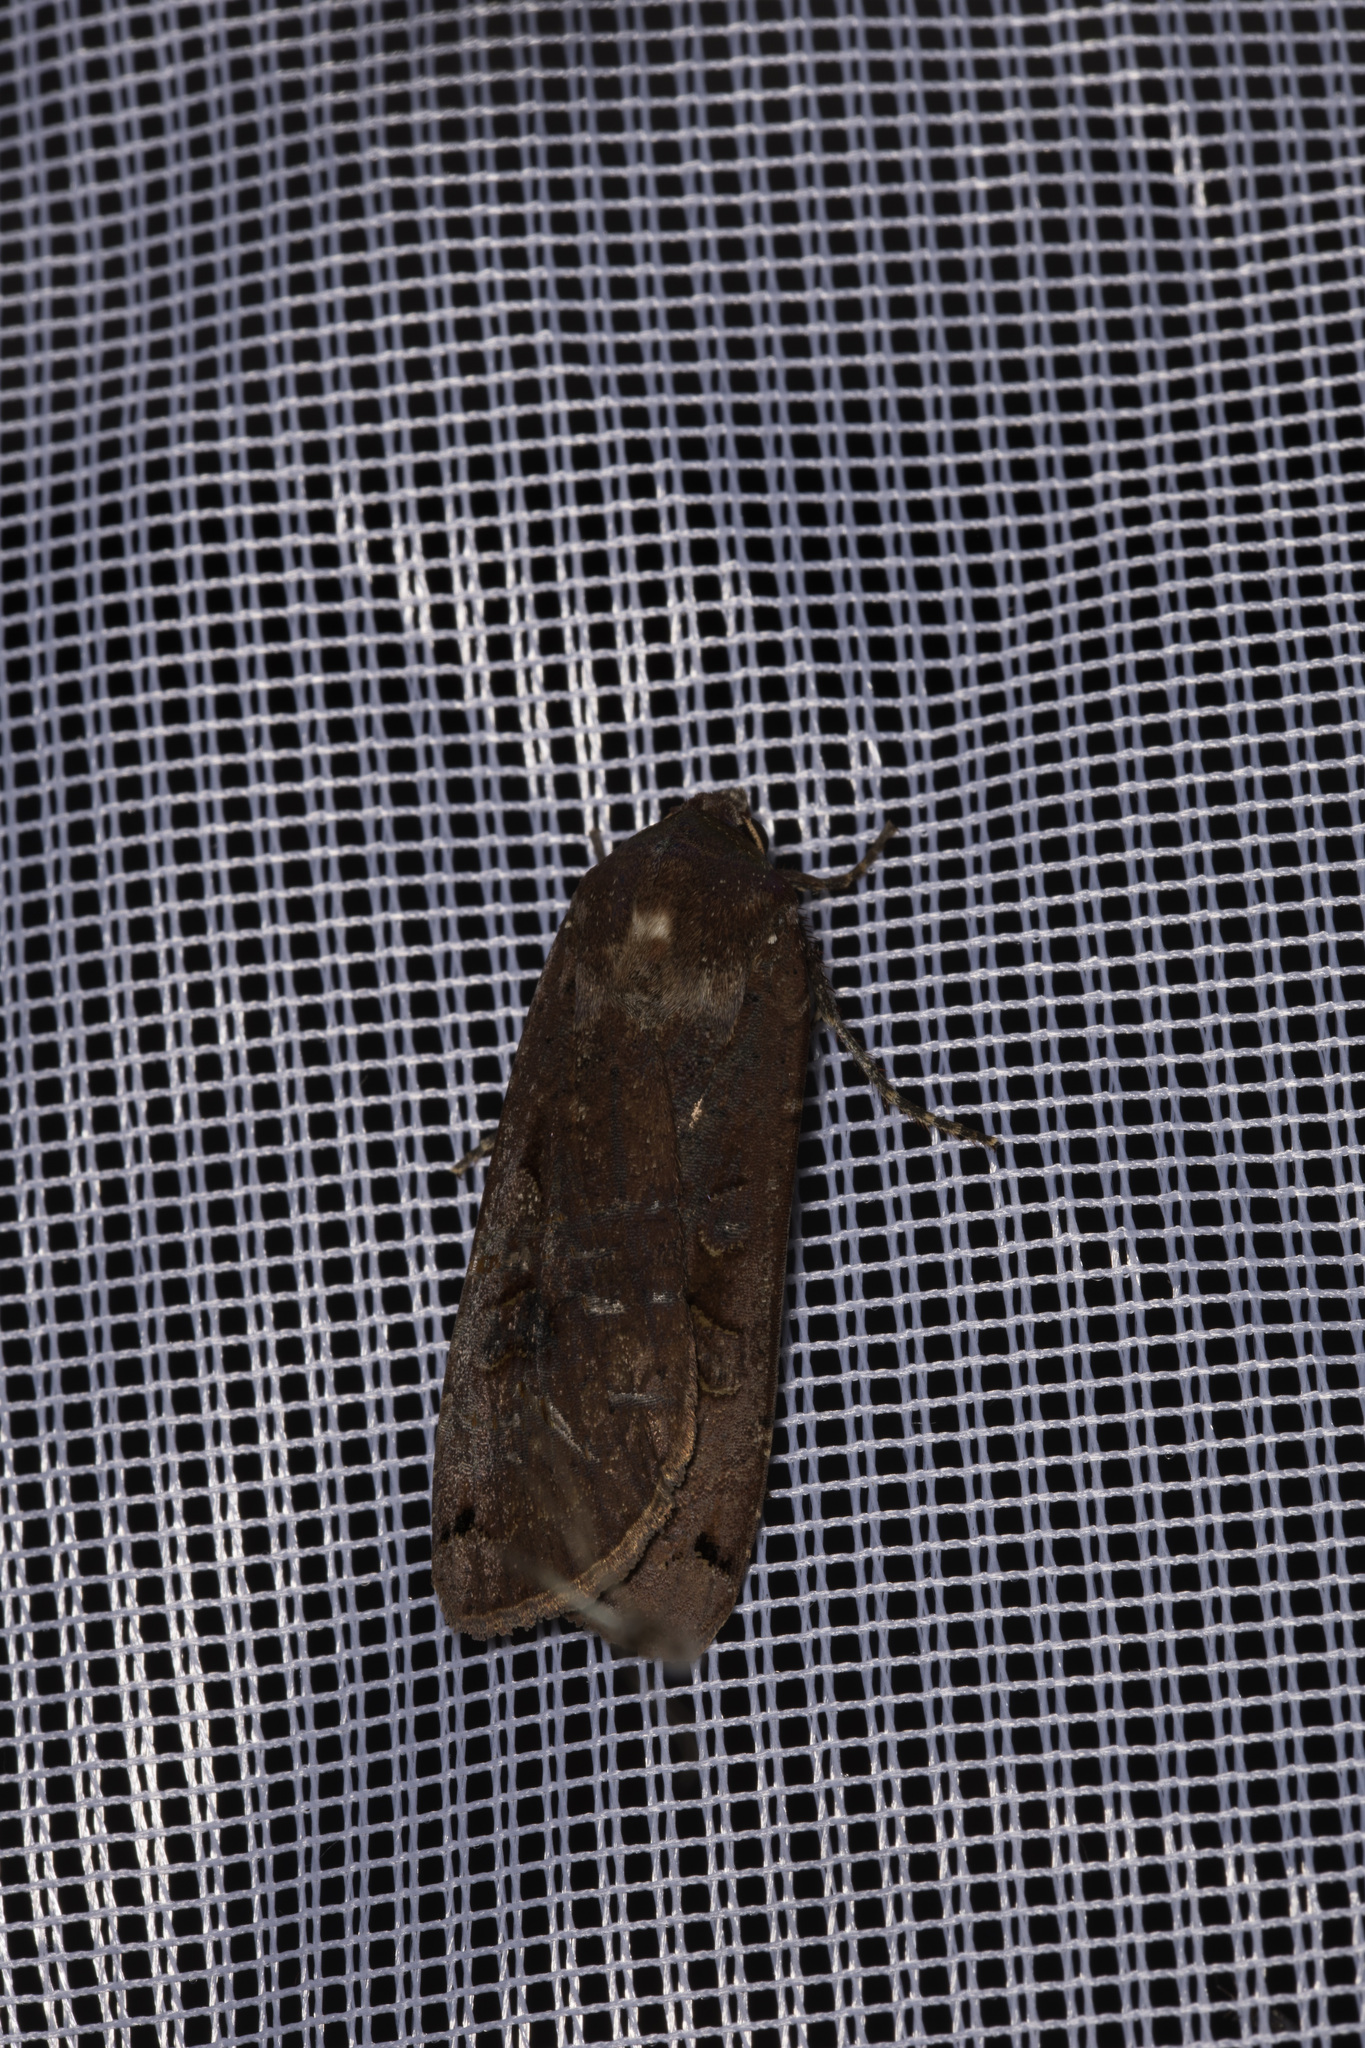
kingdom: Animalia
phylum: Arthropoda
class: Insecta
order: Lepidoptera
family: Noctuidae
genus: Noctua
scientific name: Noctua pronuba
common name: Large yellow underwing
